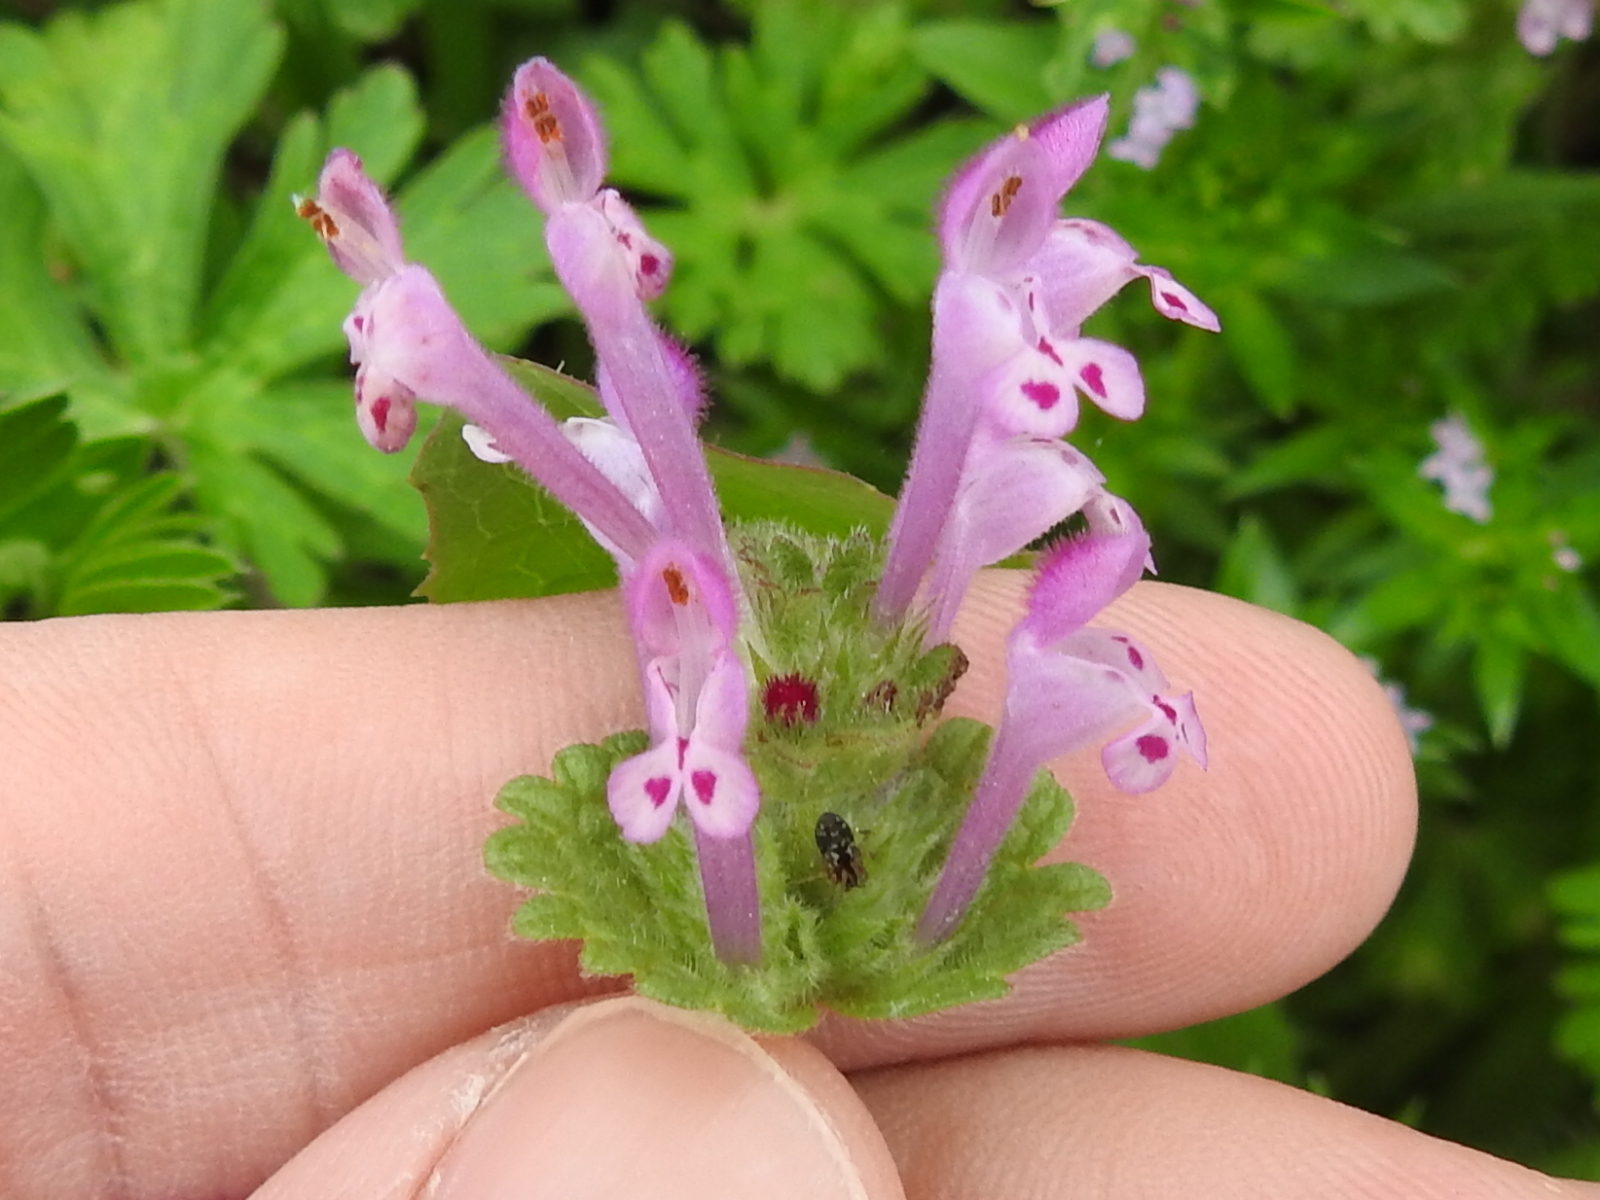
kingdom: Plantae
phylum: Tracheophyta
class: Magnoliopsida
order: Lamiales
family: Lamiaceae
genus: Lamium
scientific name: Lamium amplexicaule
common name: Henbit dead-nettle
